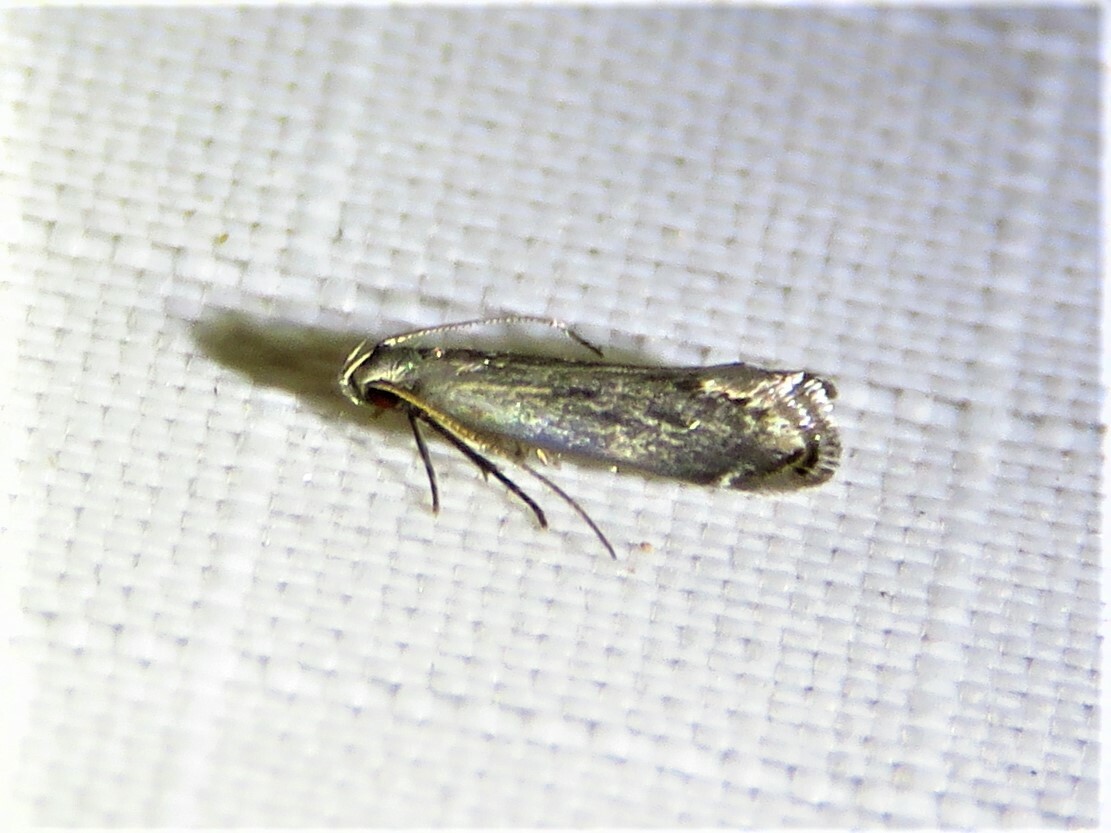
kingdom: Animalia
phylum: Arthropoda
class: Insecta
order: Lepidoptera
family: Gelechiidae
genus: Battaristis
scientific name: Battaristis concinnusella
